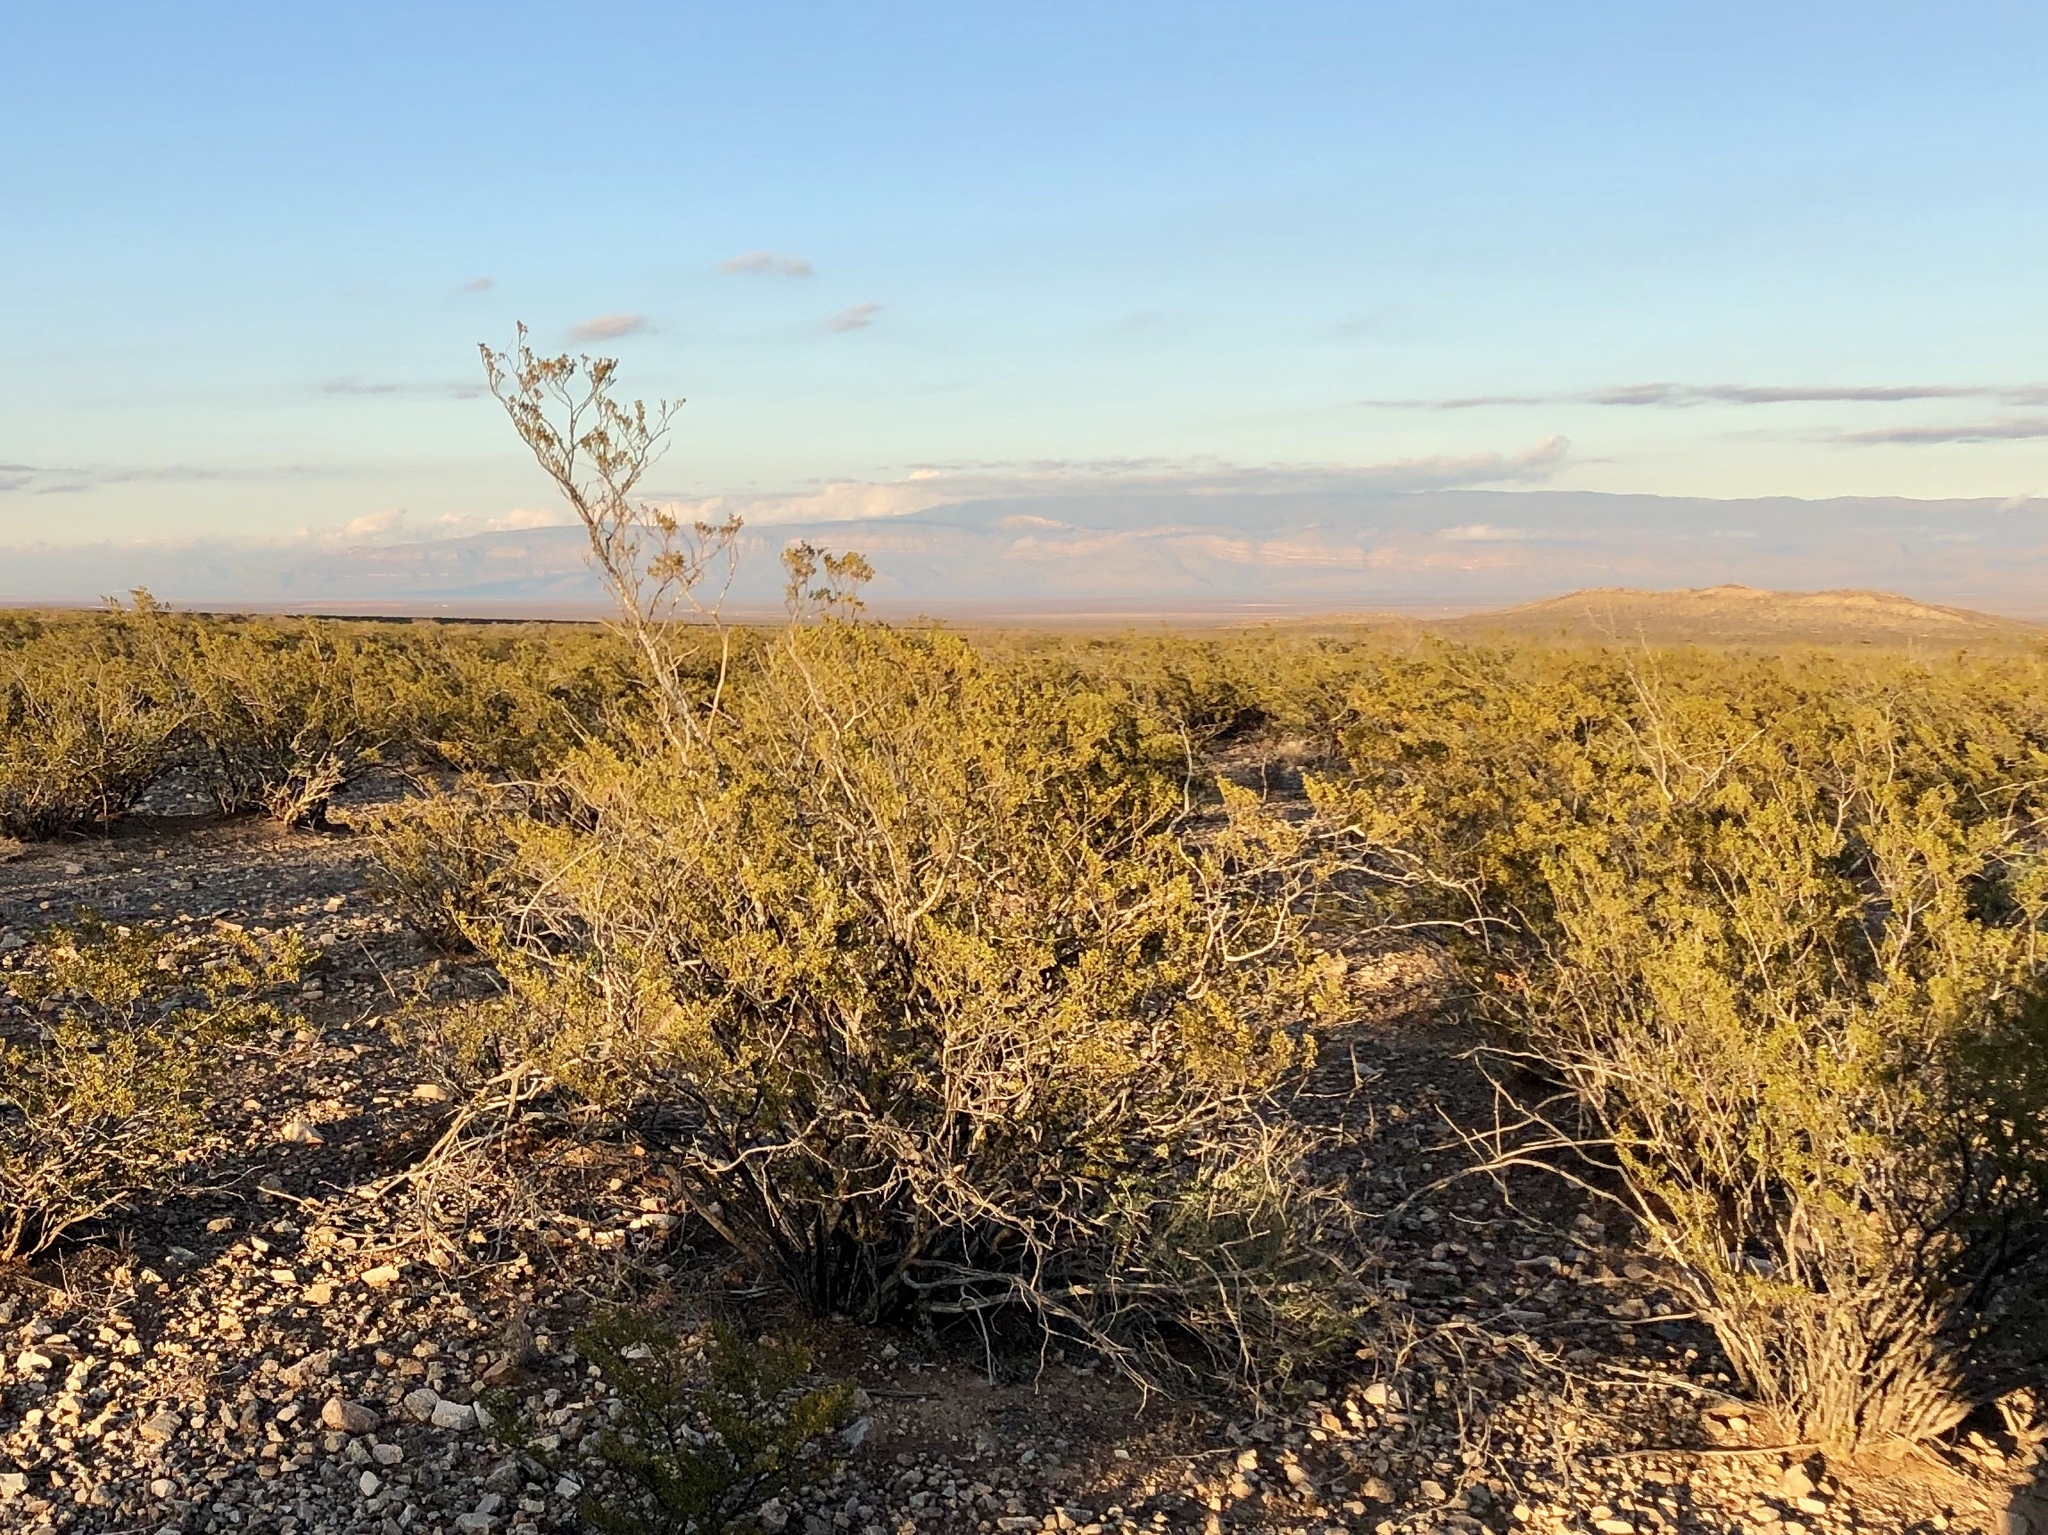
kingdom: Plantae
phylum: Tracheophyta
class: Magnoliopsida
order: Zygophyllales
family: Zygophyllaceae
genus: Larrea
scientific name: Larrea tridentata
